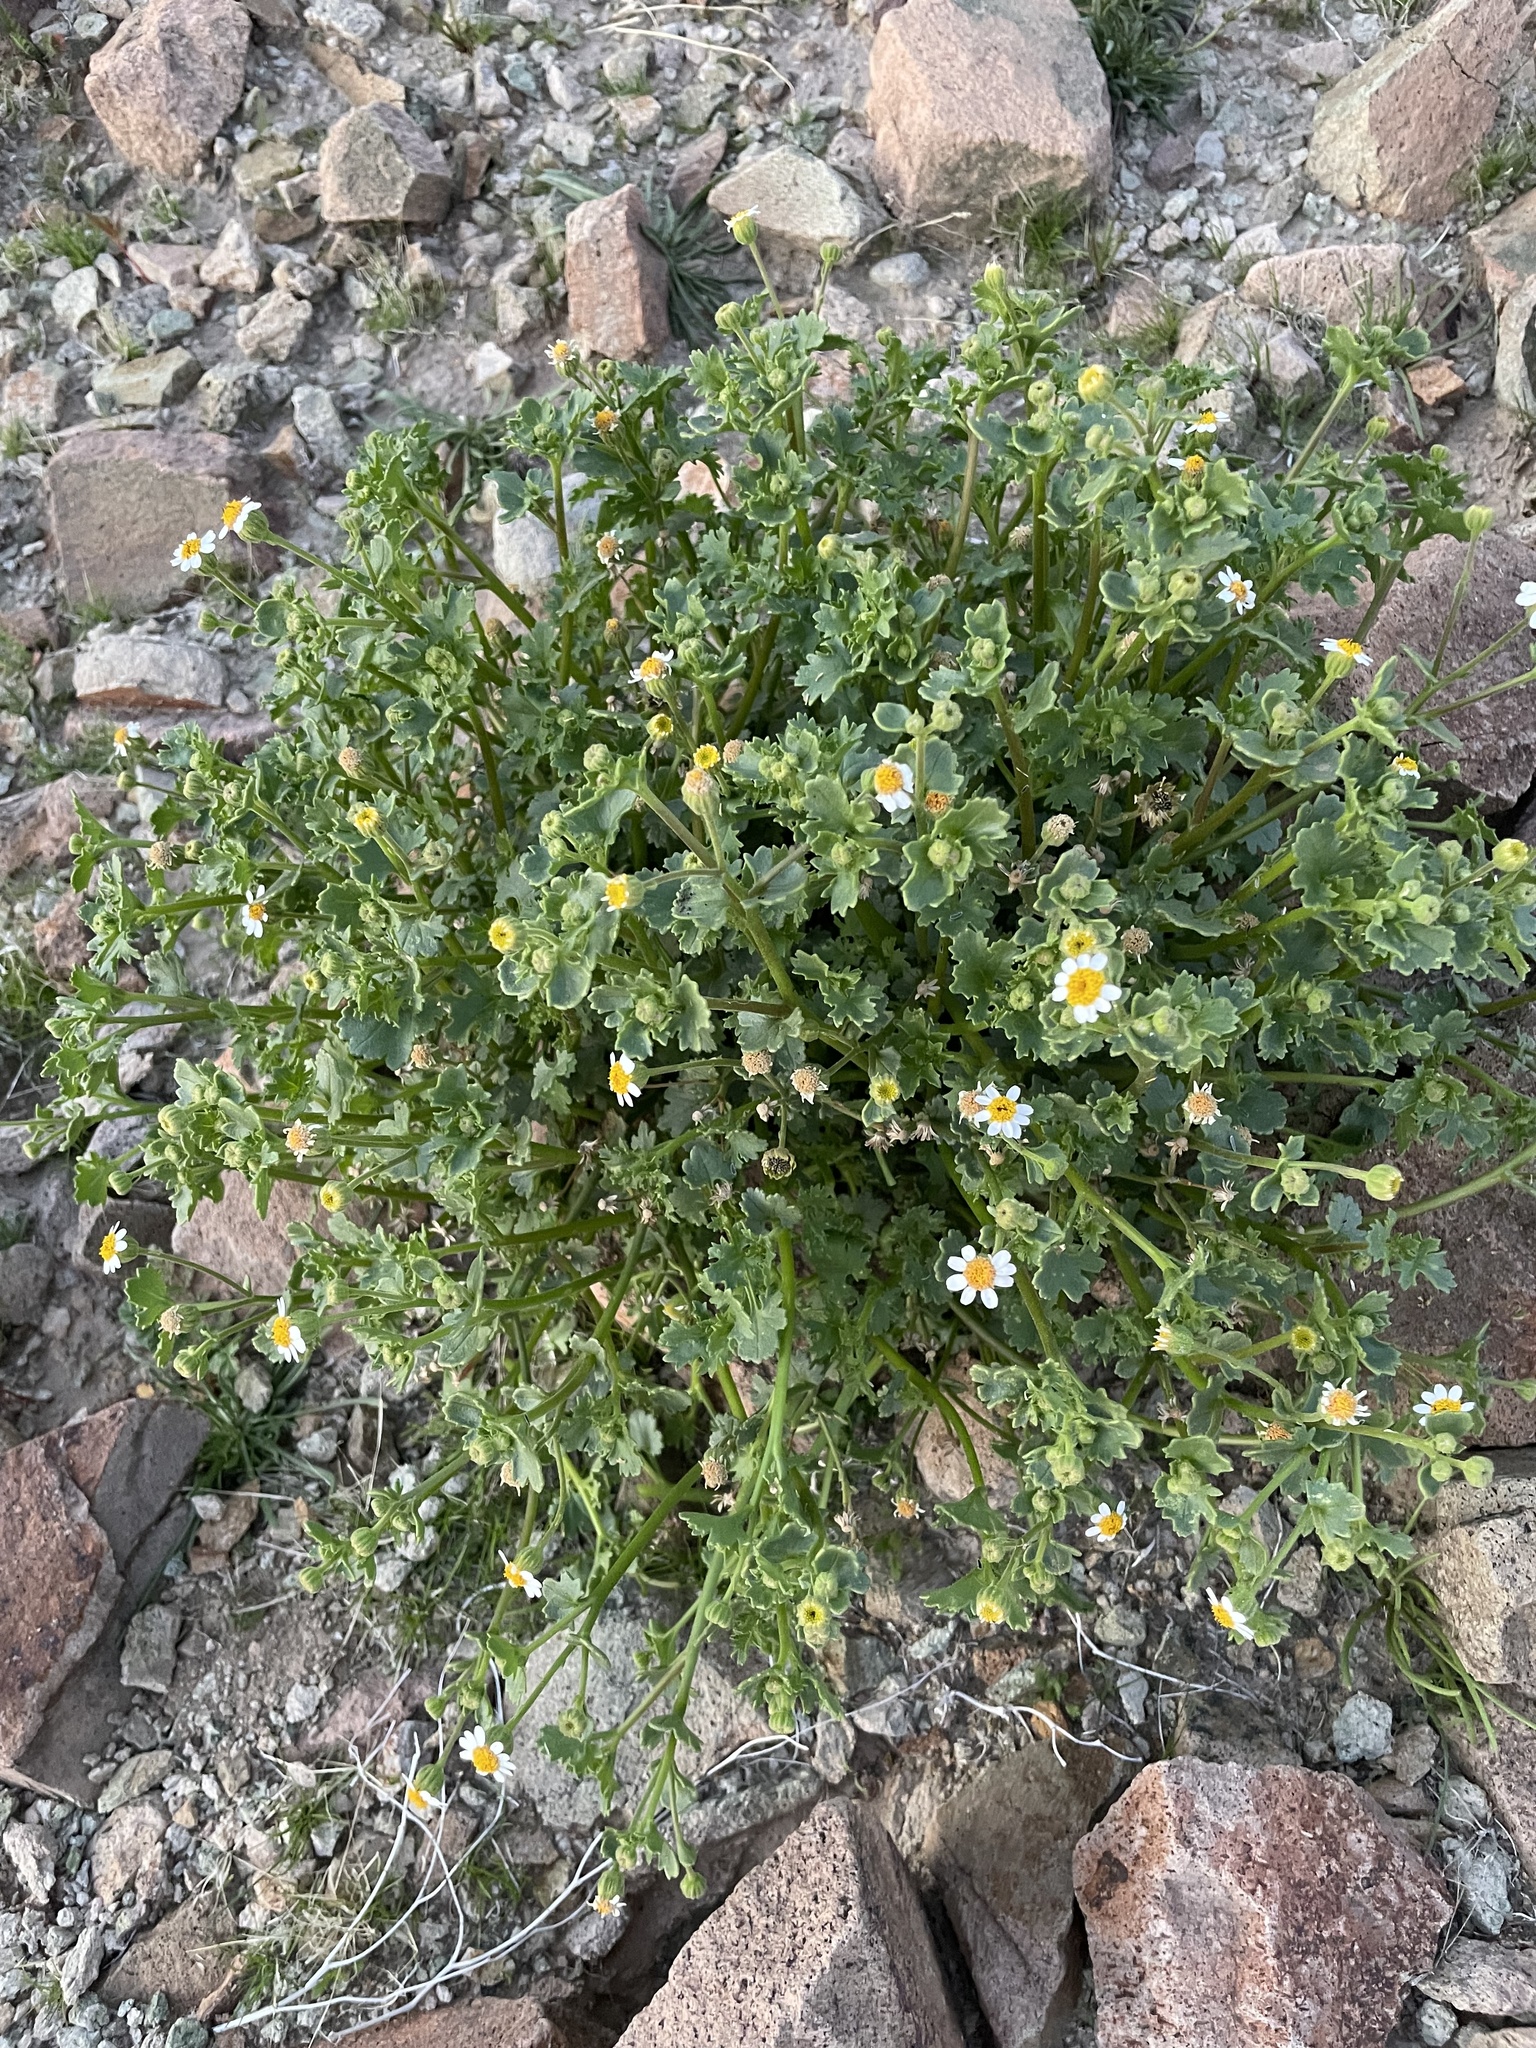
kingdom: Plantae
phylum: Tracheophyta
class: Magnoliopsida
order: Asterales
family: Asteraceae
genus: Laphamia
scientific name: Laphamia emoryi
